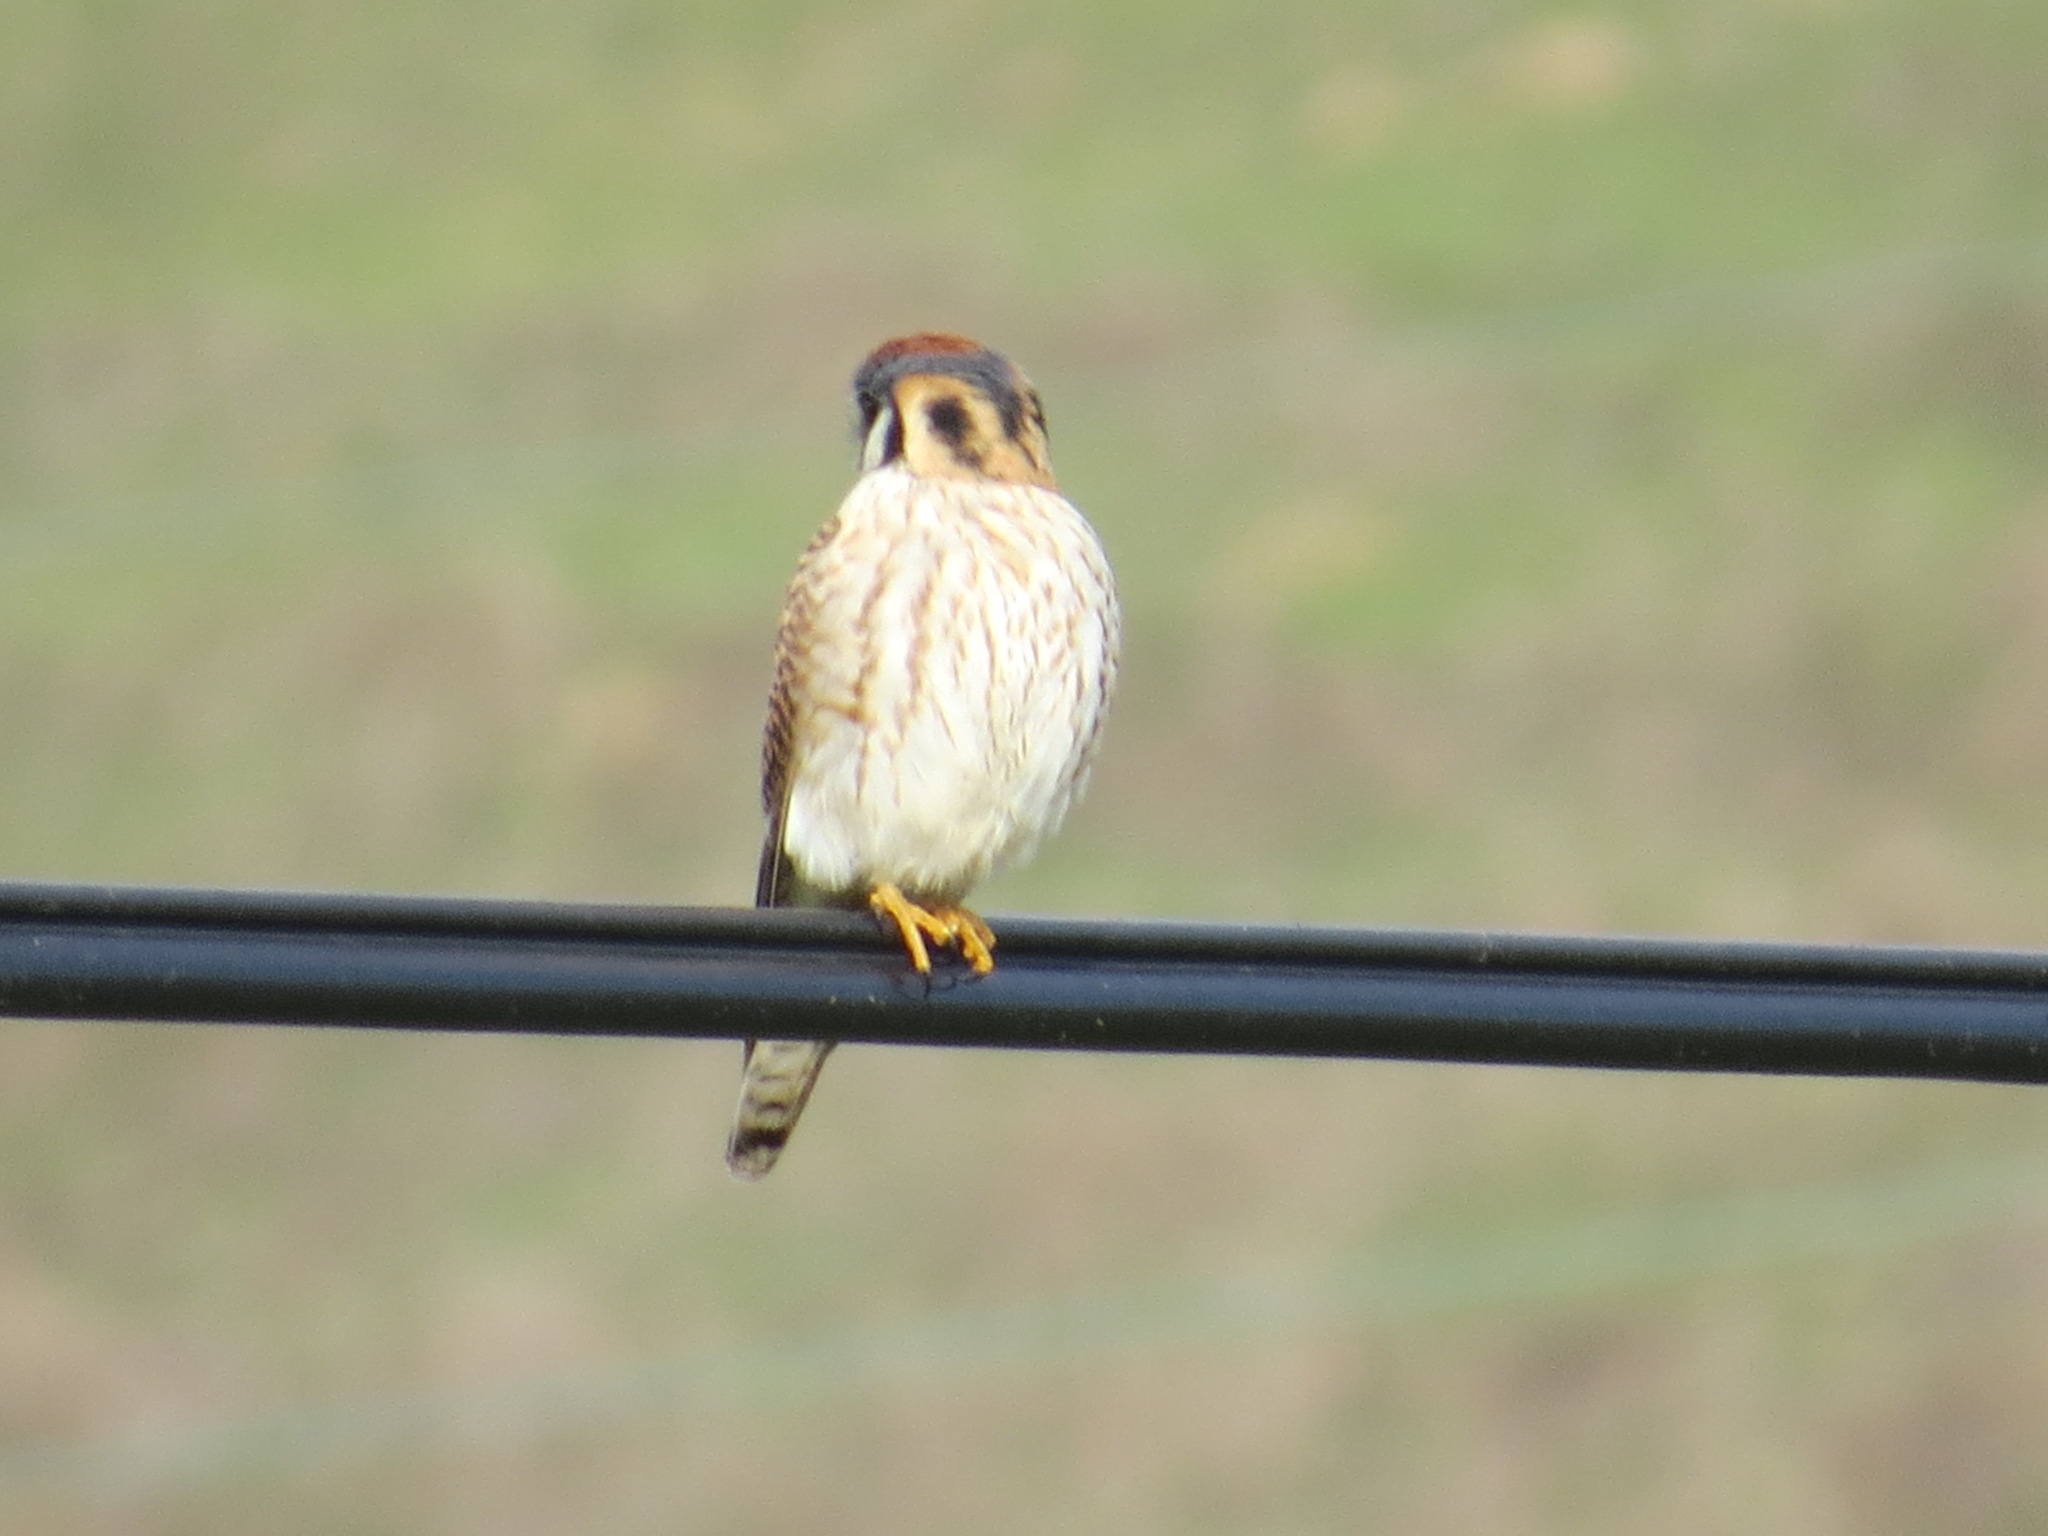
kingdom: Animalia
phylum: Chordata
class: Aves
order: Falconiformes
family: Falconidae
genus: Falco
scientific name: Falco sparverius
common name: American kestrel
